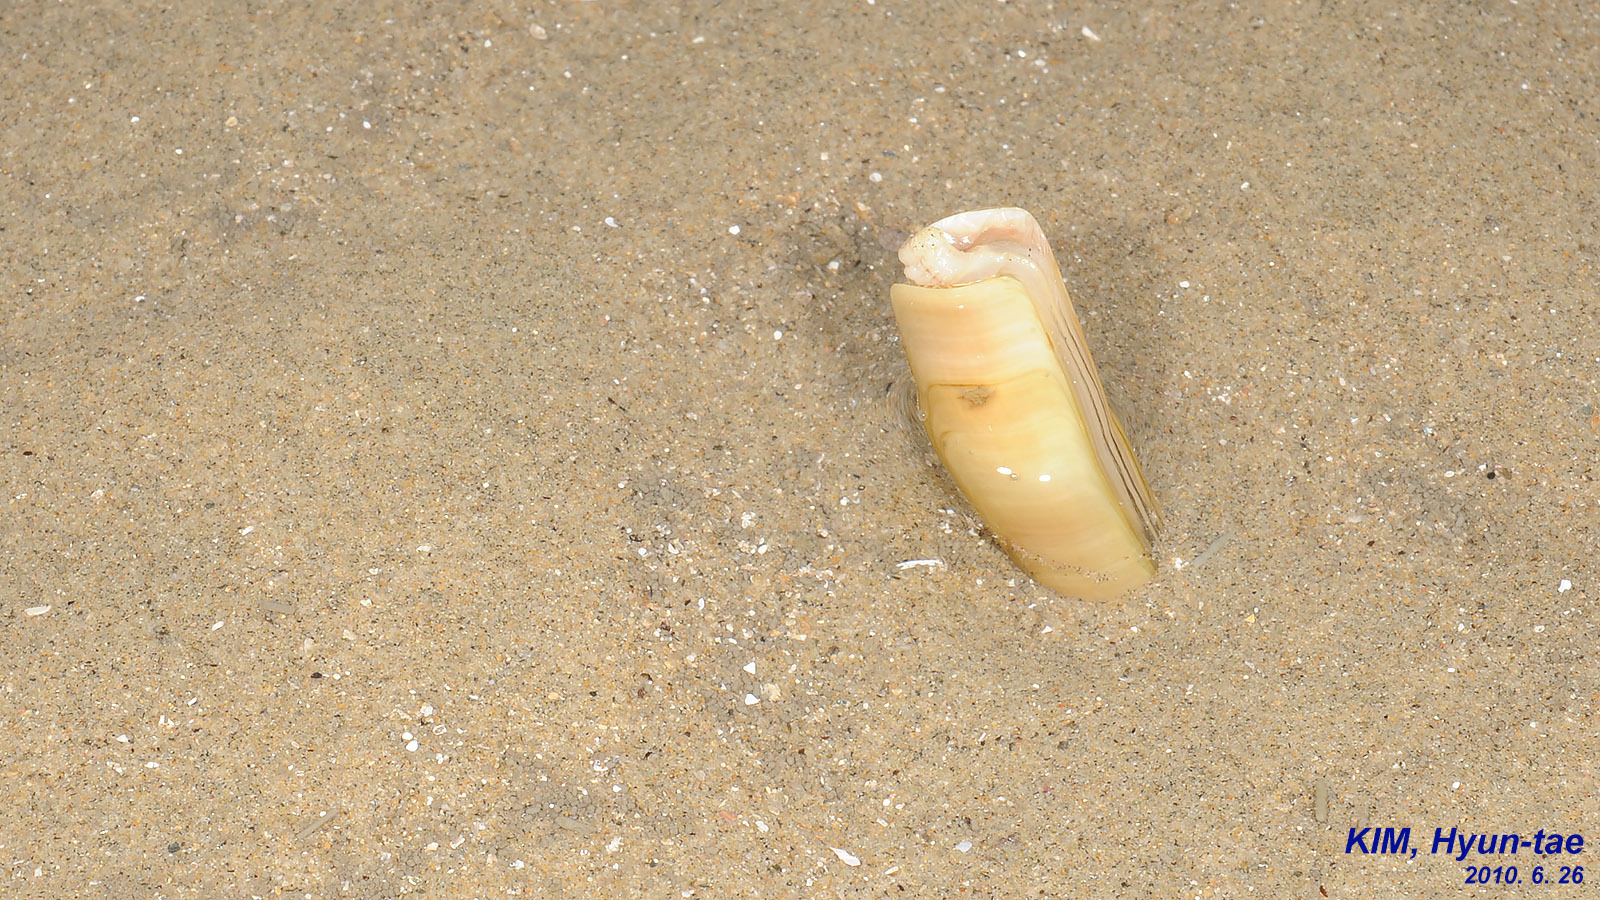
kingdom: Animalia
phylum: Mollusca
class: Bivalvia
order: Adapedonta
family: Solenidae
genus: Solen
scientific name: Solen grandis
